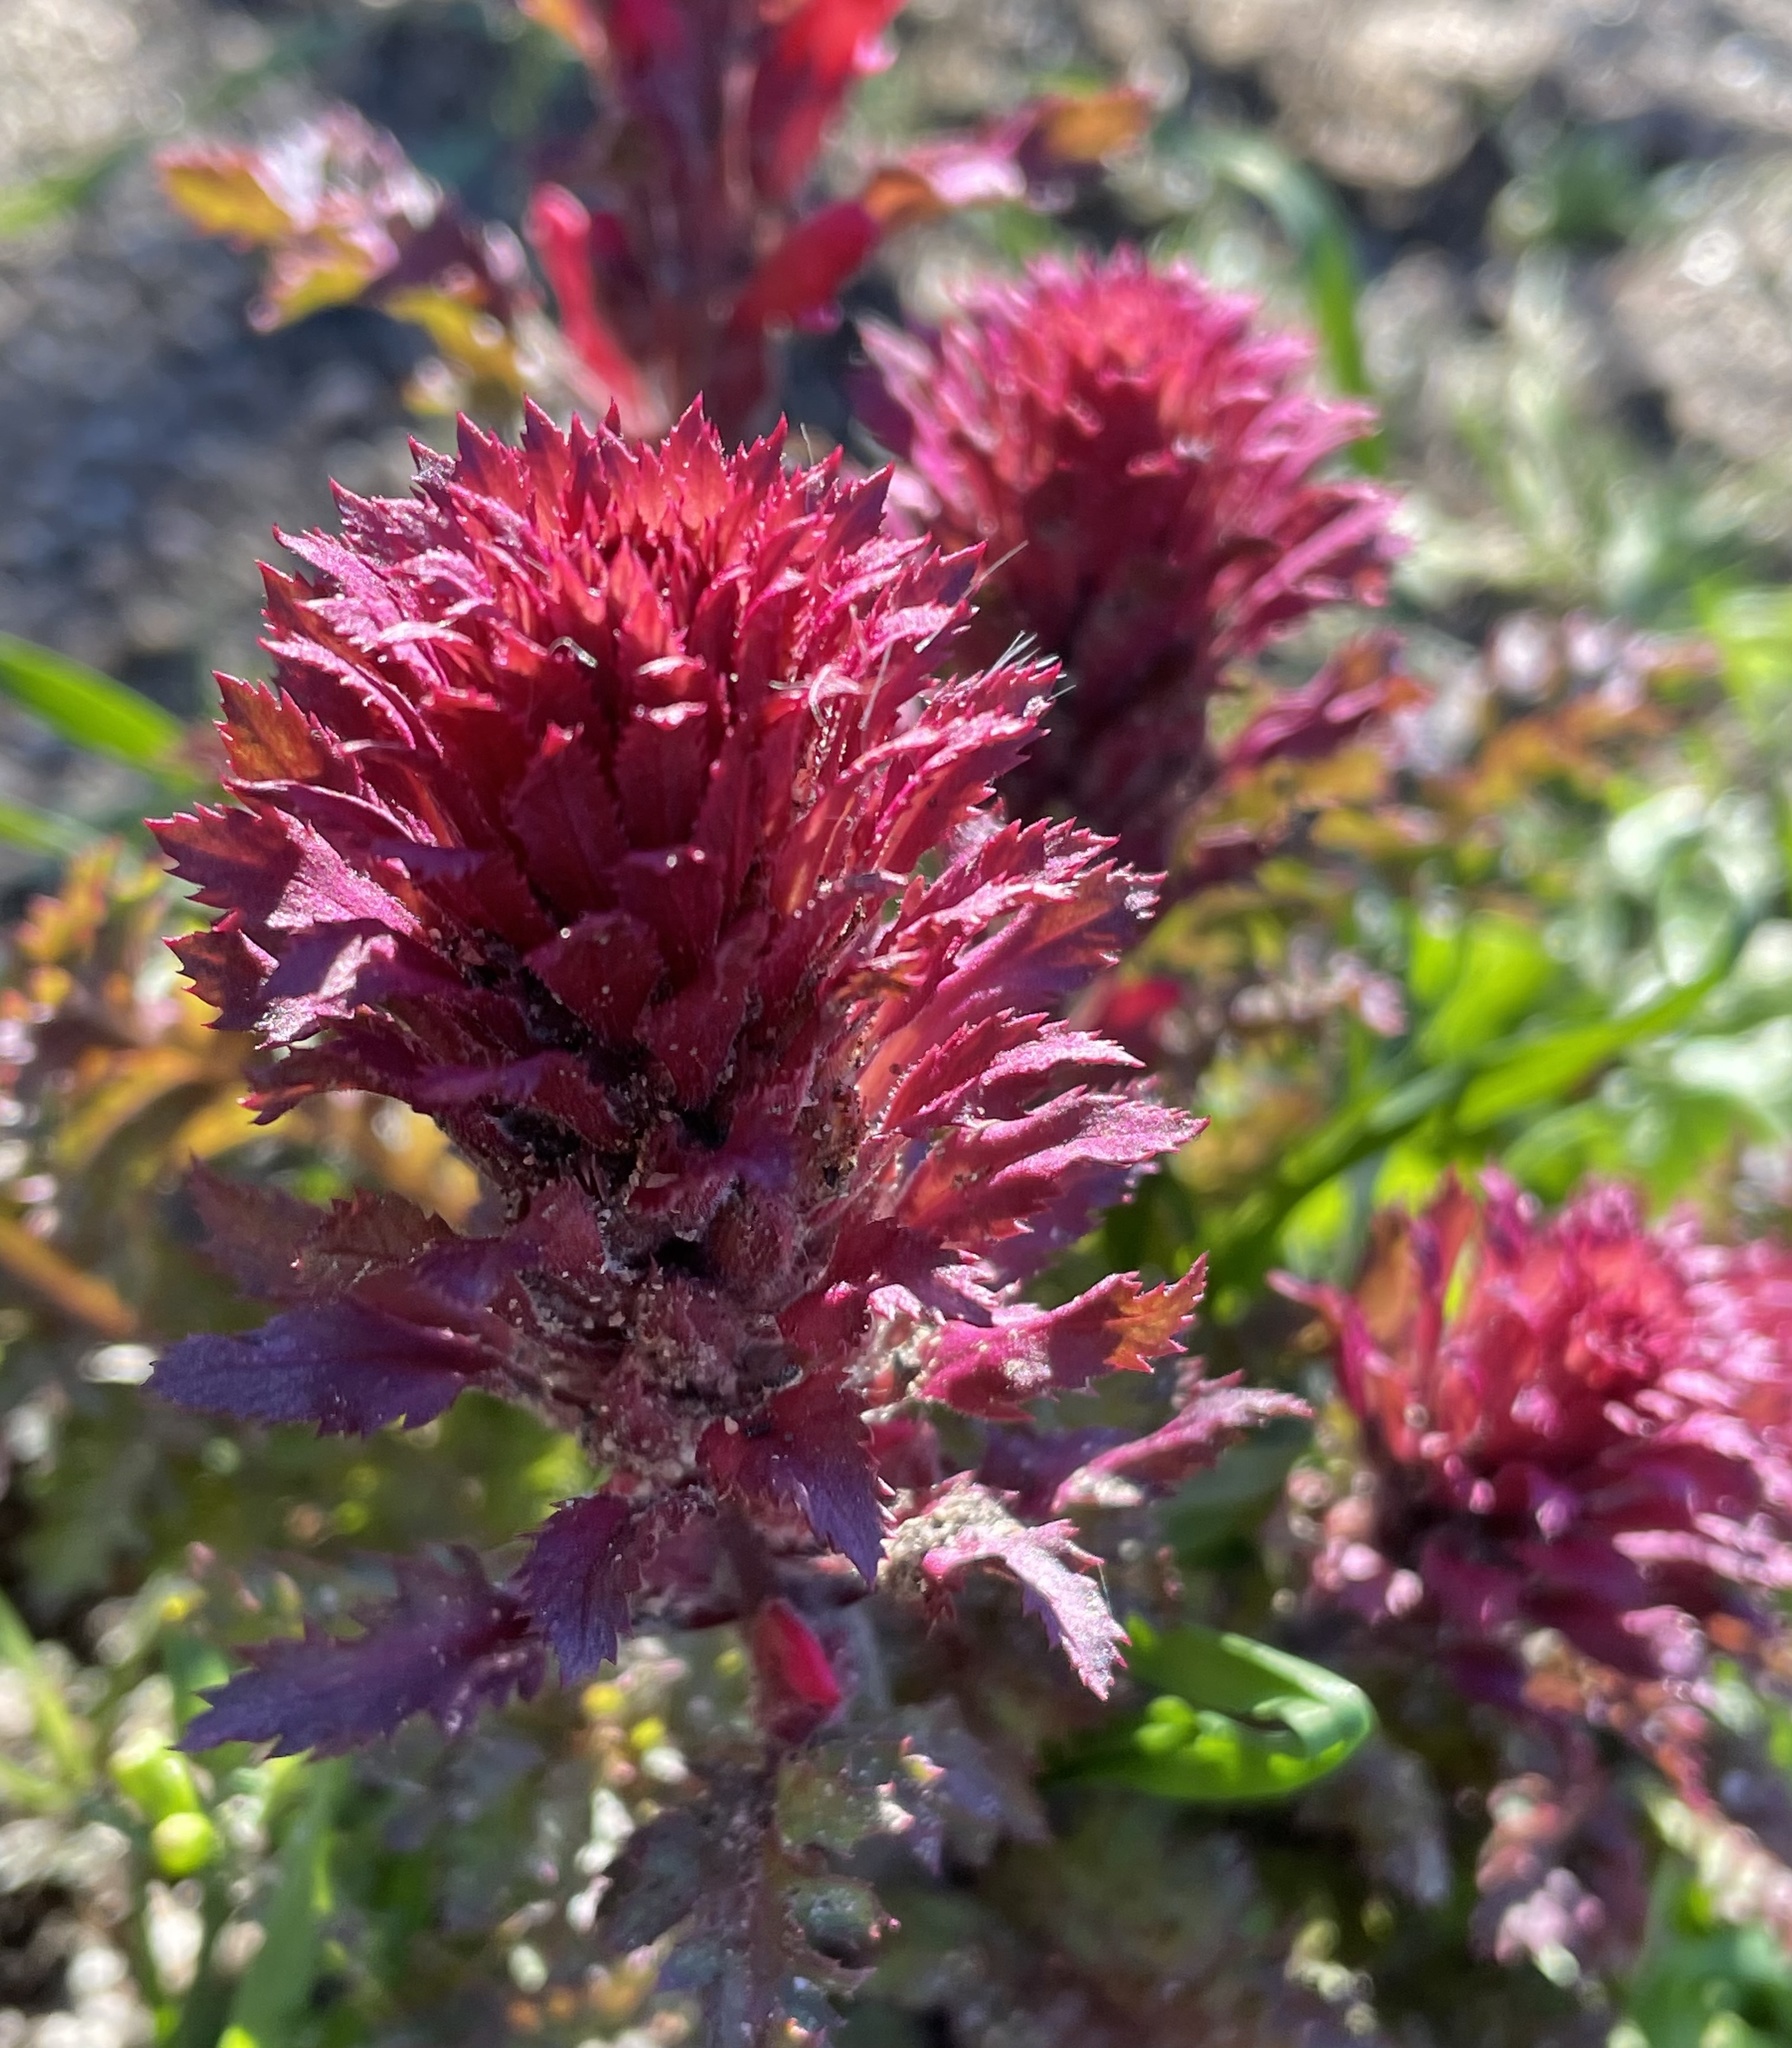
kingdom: Plantae
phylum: Tracheophyta
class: Magnoliopsida
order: Lamiales
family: Orobanchaceae
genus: Pedicularis
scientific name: Pedicularis densiflora
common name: Indian warrior
